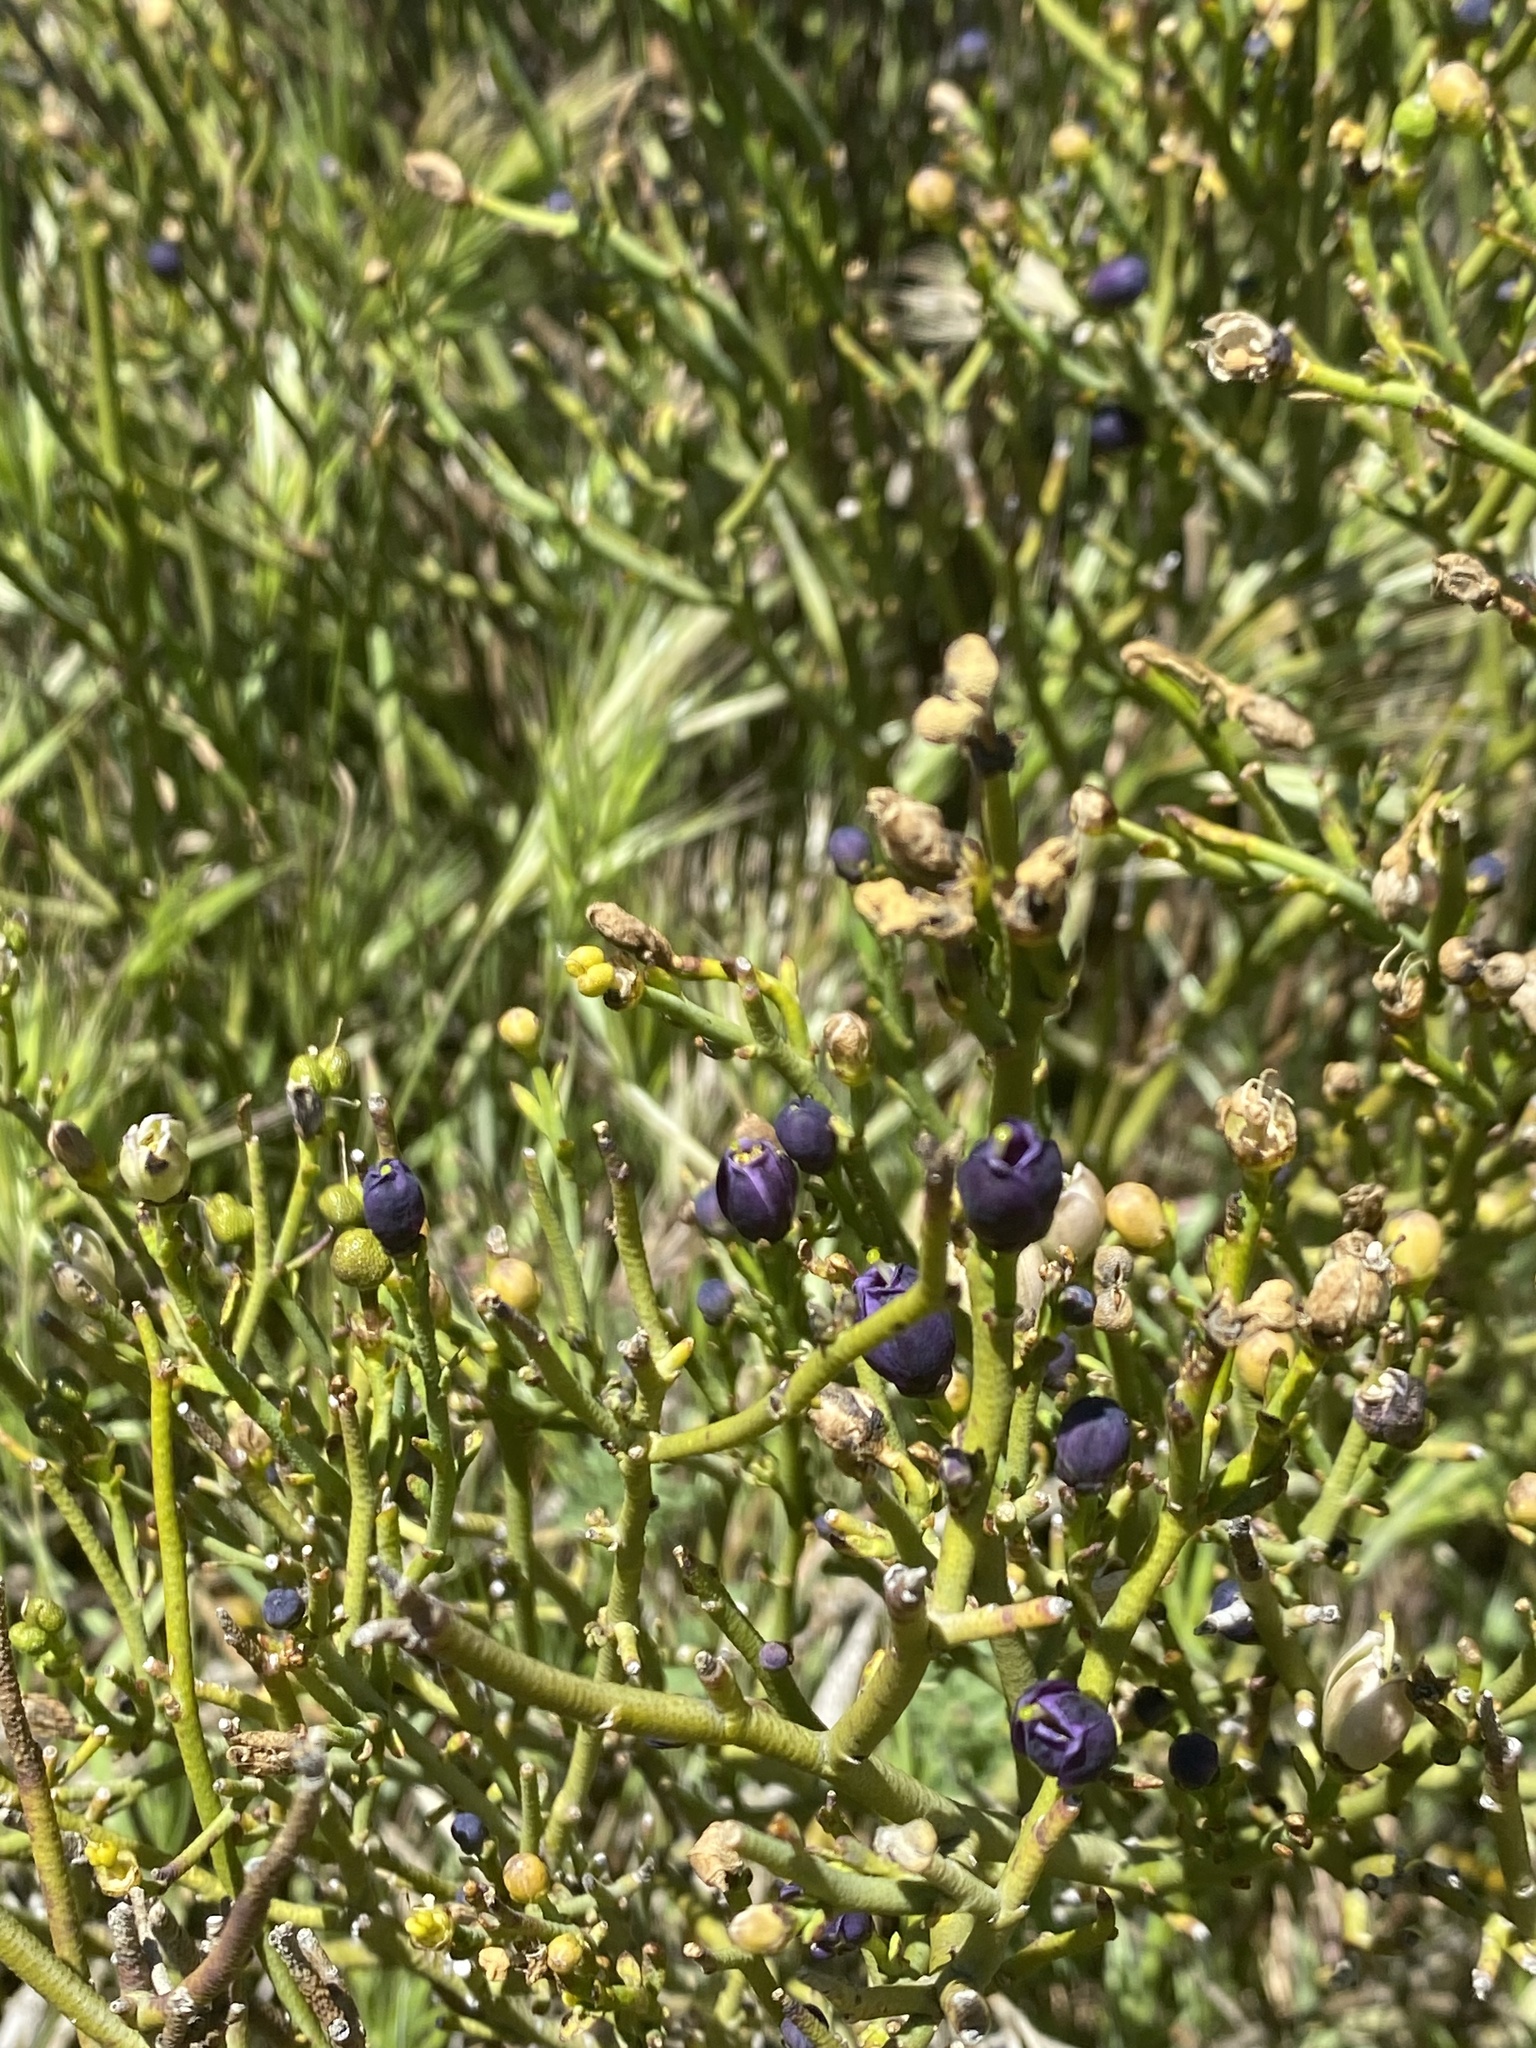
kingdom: Plantae
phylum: Tracheophyta
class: Magnoliopsida
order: Sapindales
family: Rutaceae
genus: Thamnosma
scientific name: Thamnosma montana
